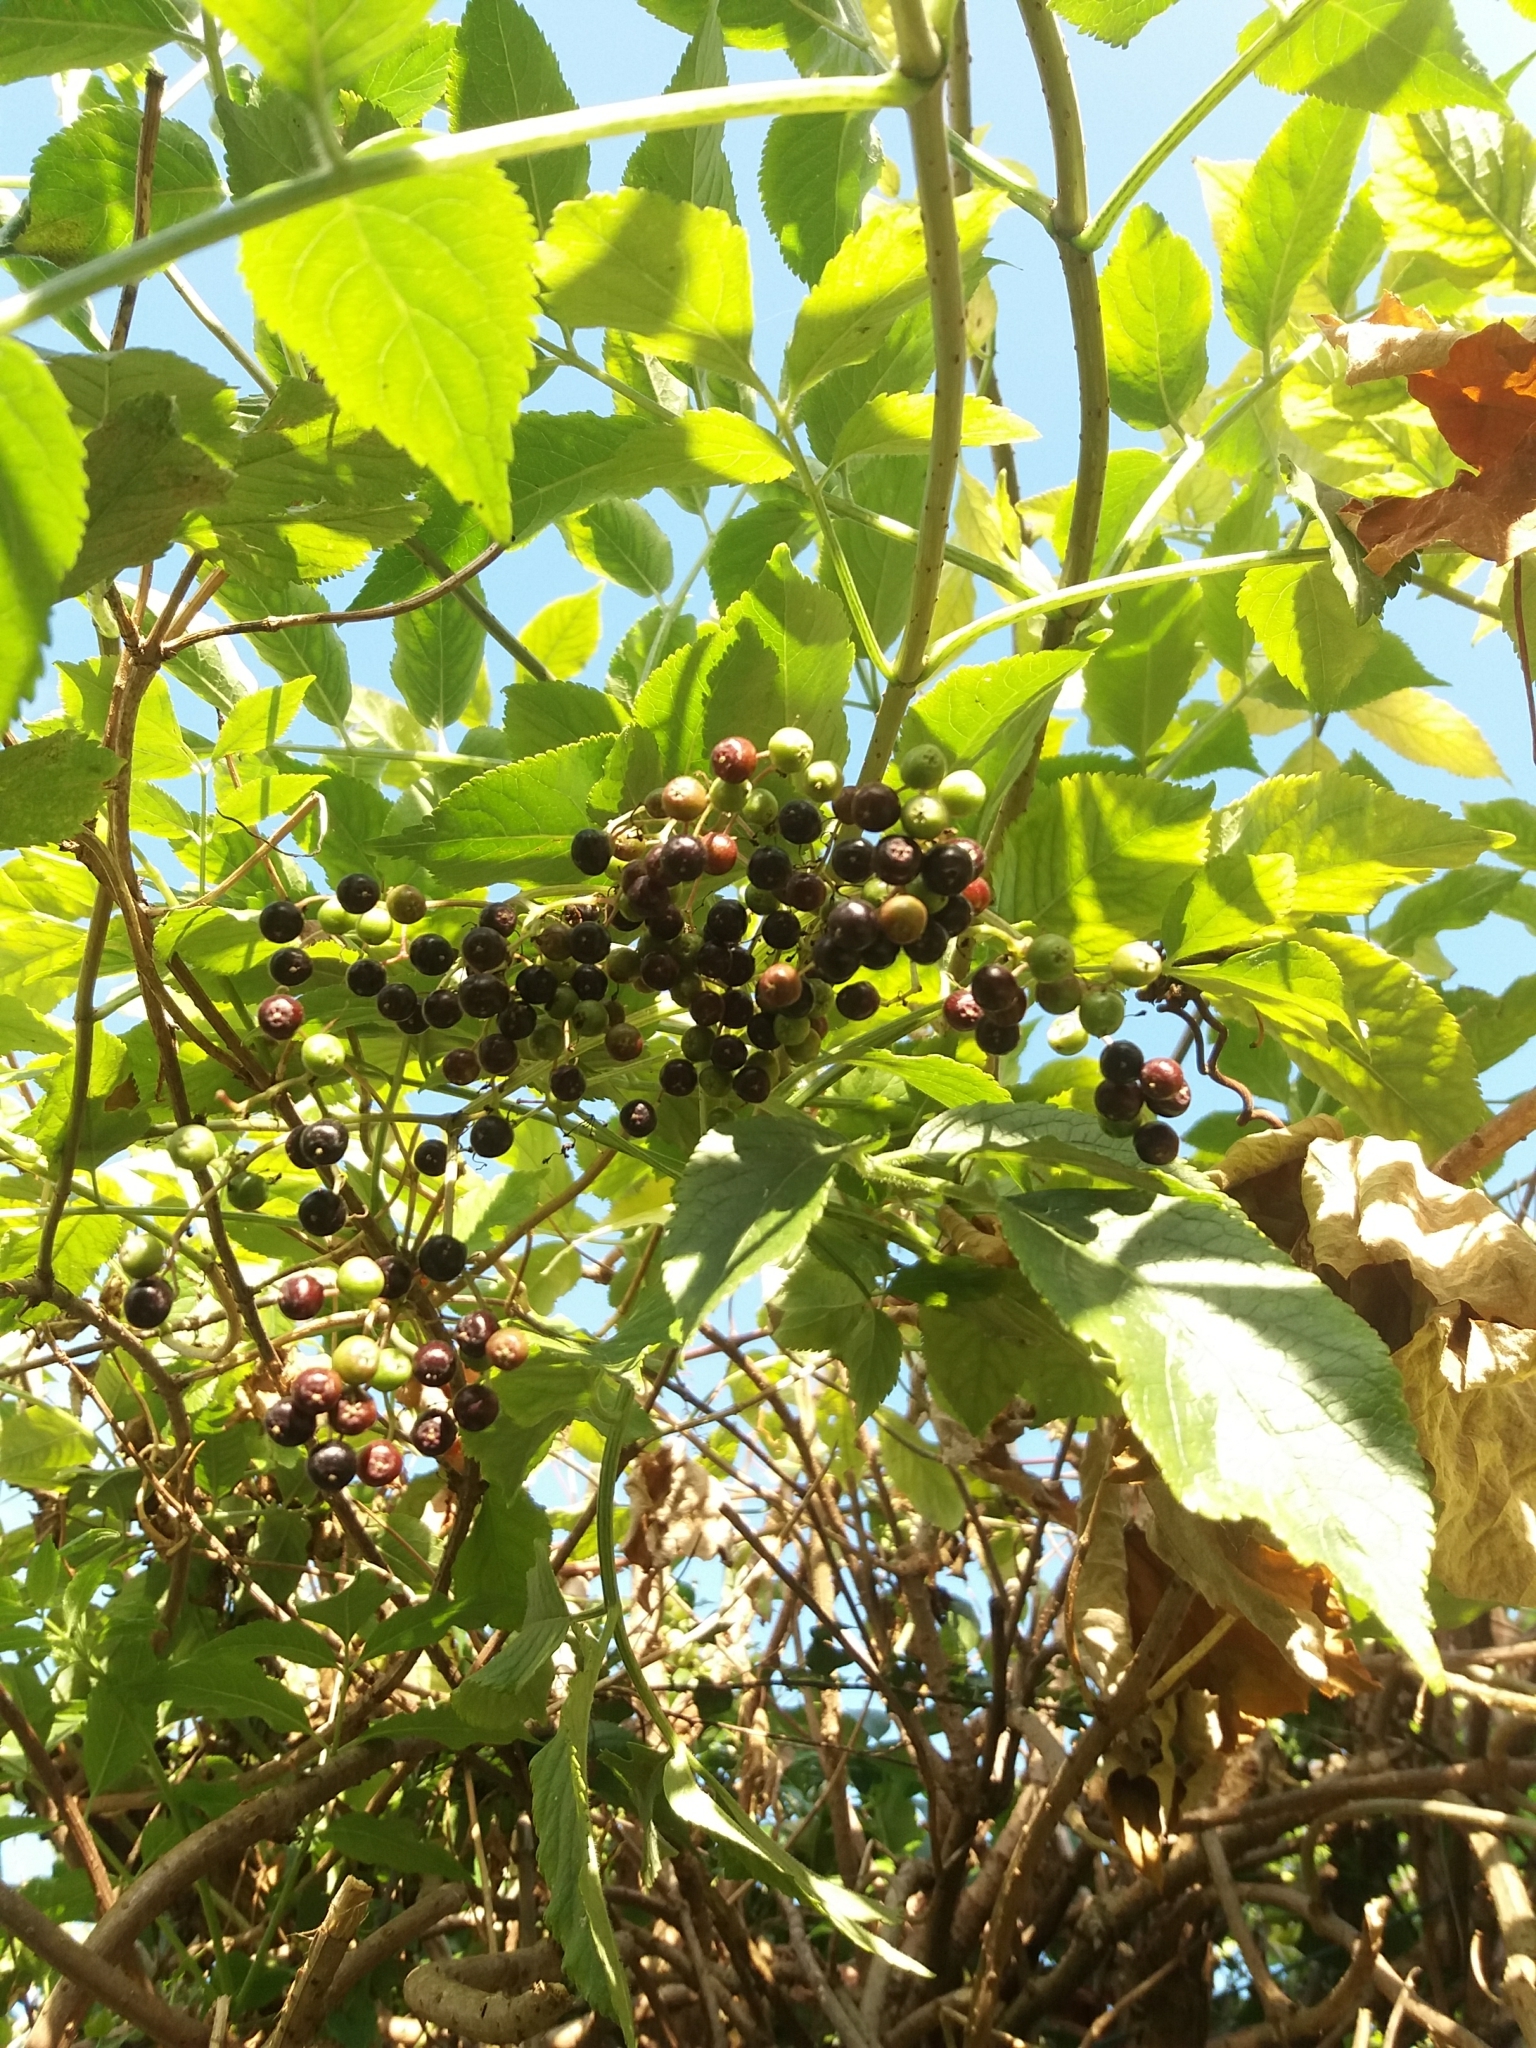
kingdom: Plantae
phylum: Tracheophyta
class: Magnoliopsida
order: Dipsacales
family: Viburnaceae
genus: Sambucus
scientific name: Sambucus nigra
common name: Elder
